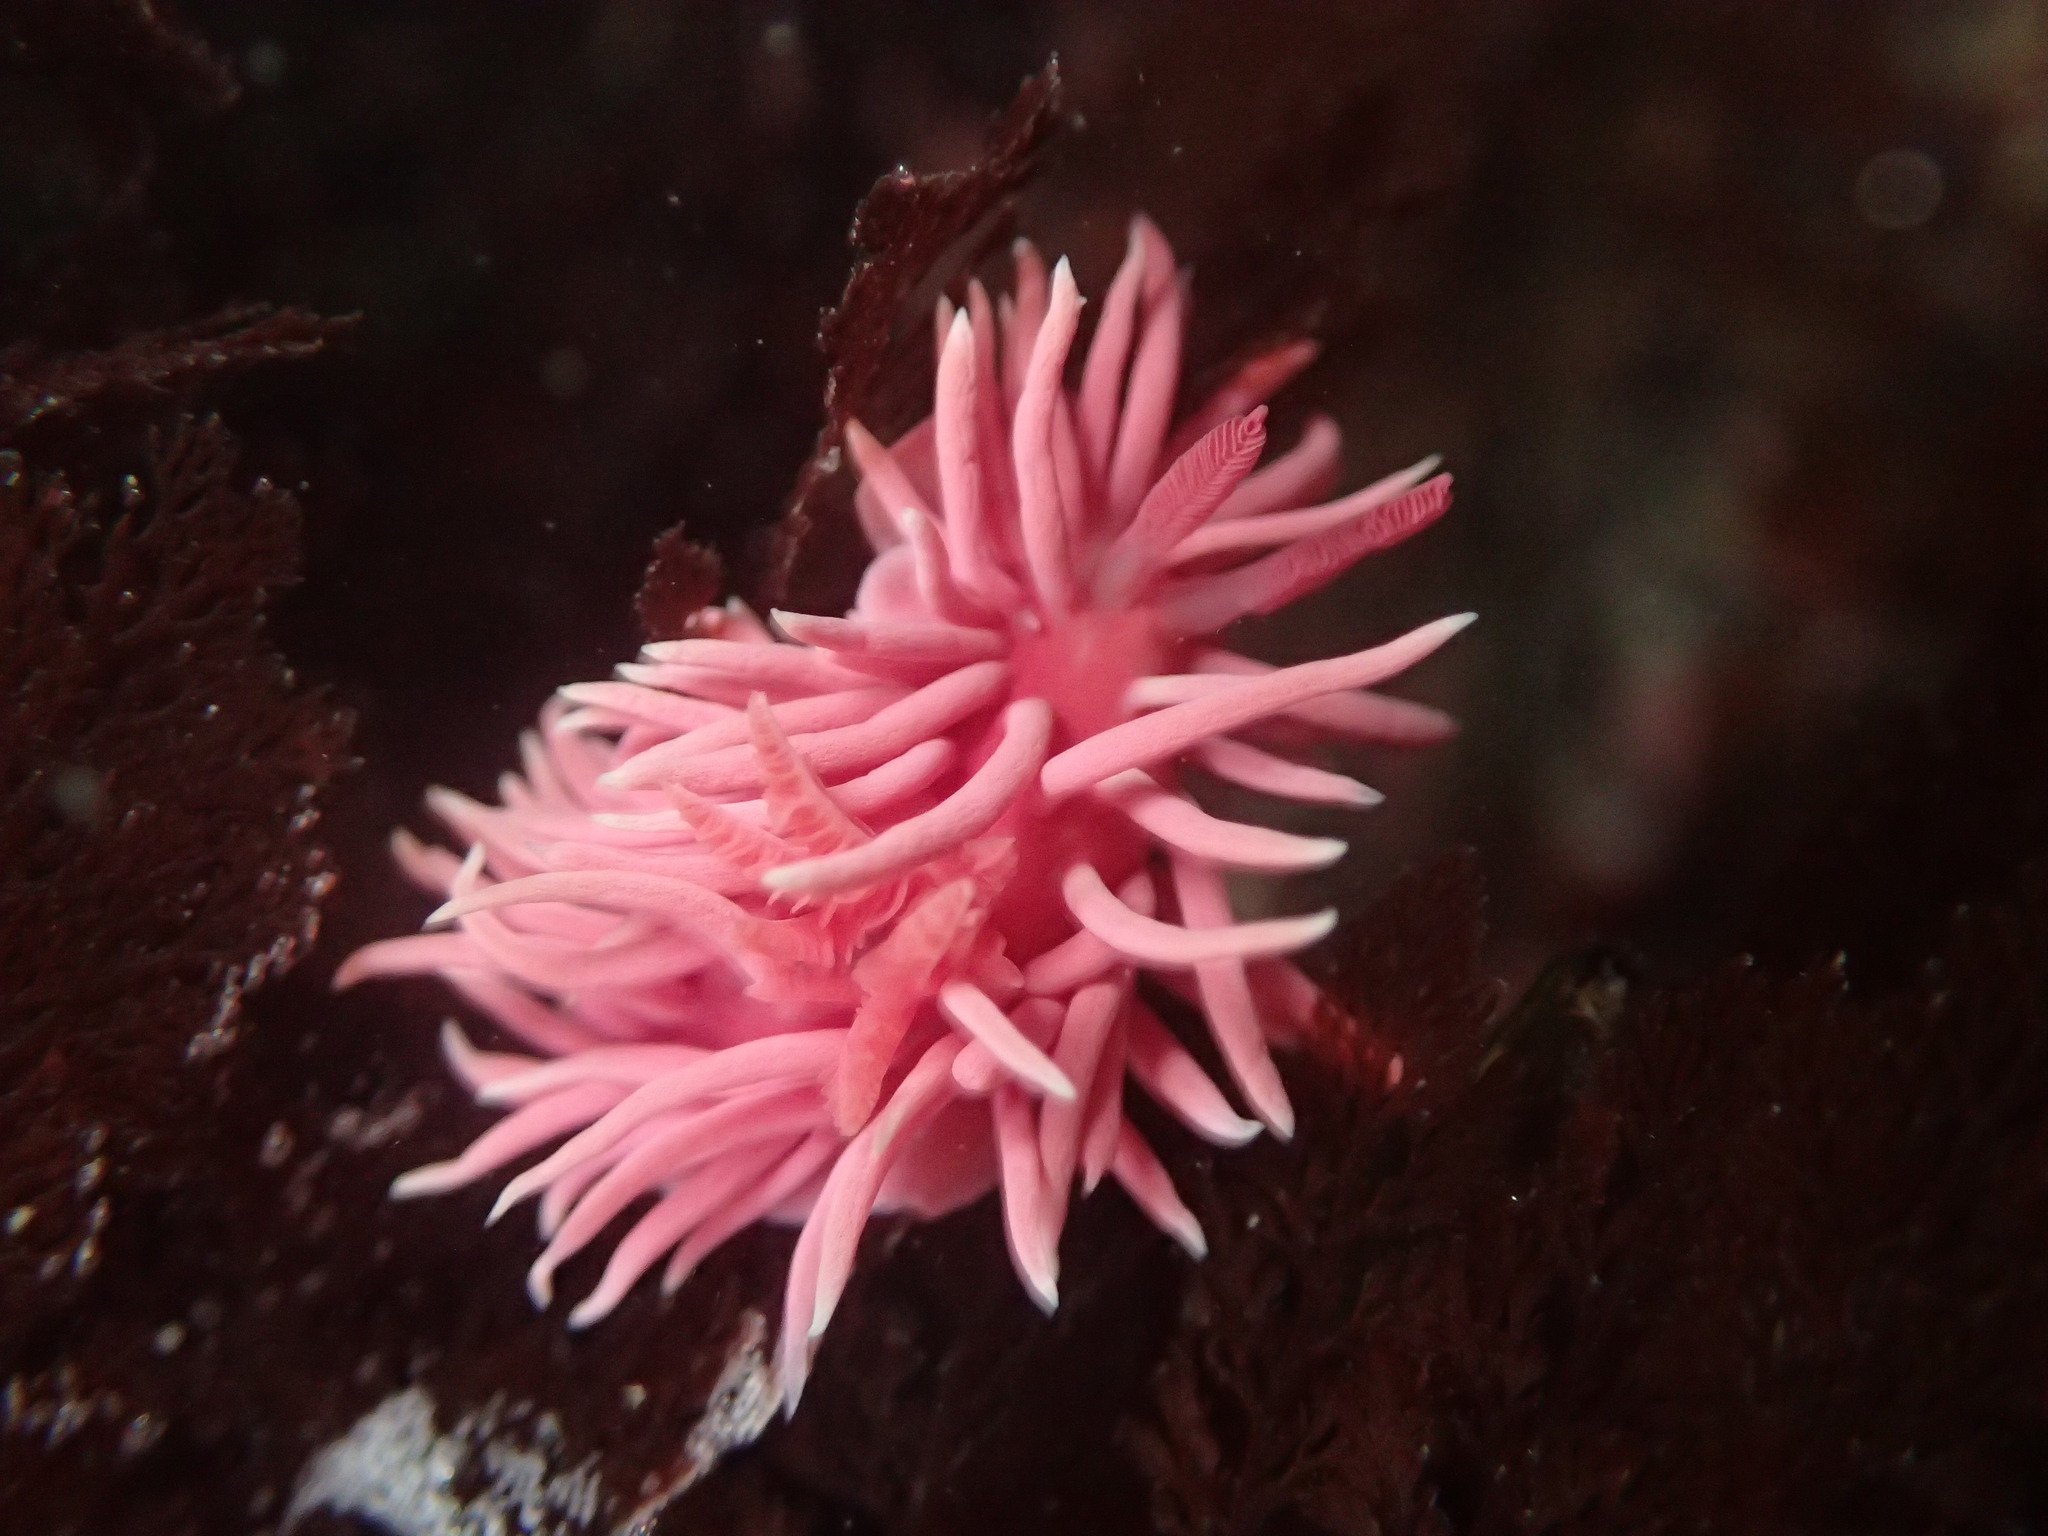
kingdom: Animalia
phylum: Mollusca
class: Gastropoda
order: Nudibranchia
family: Goniodorididae
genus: Okenia
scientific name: Okenia
